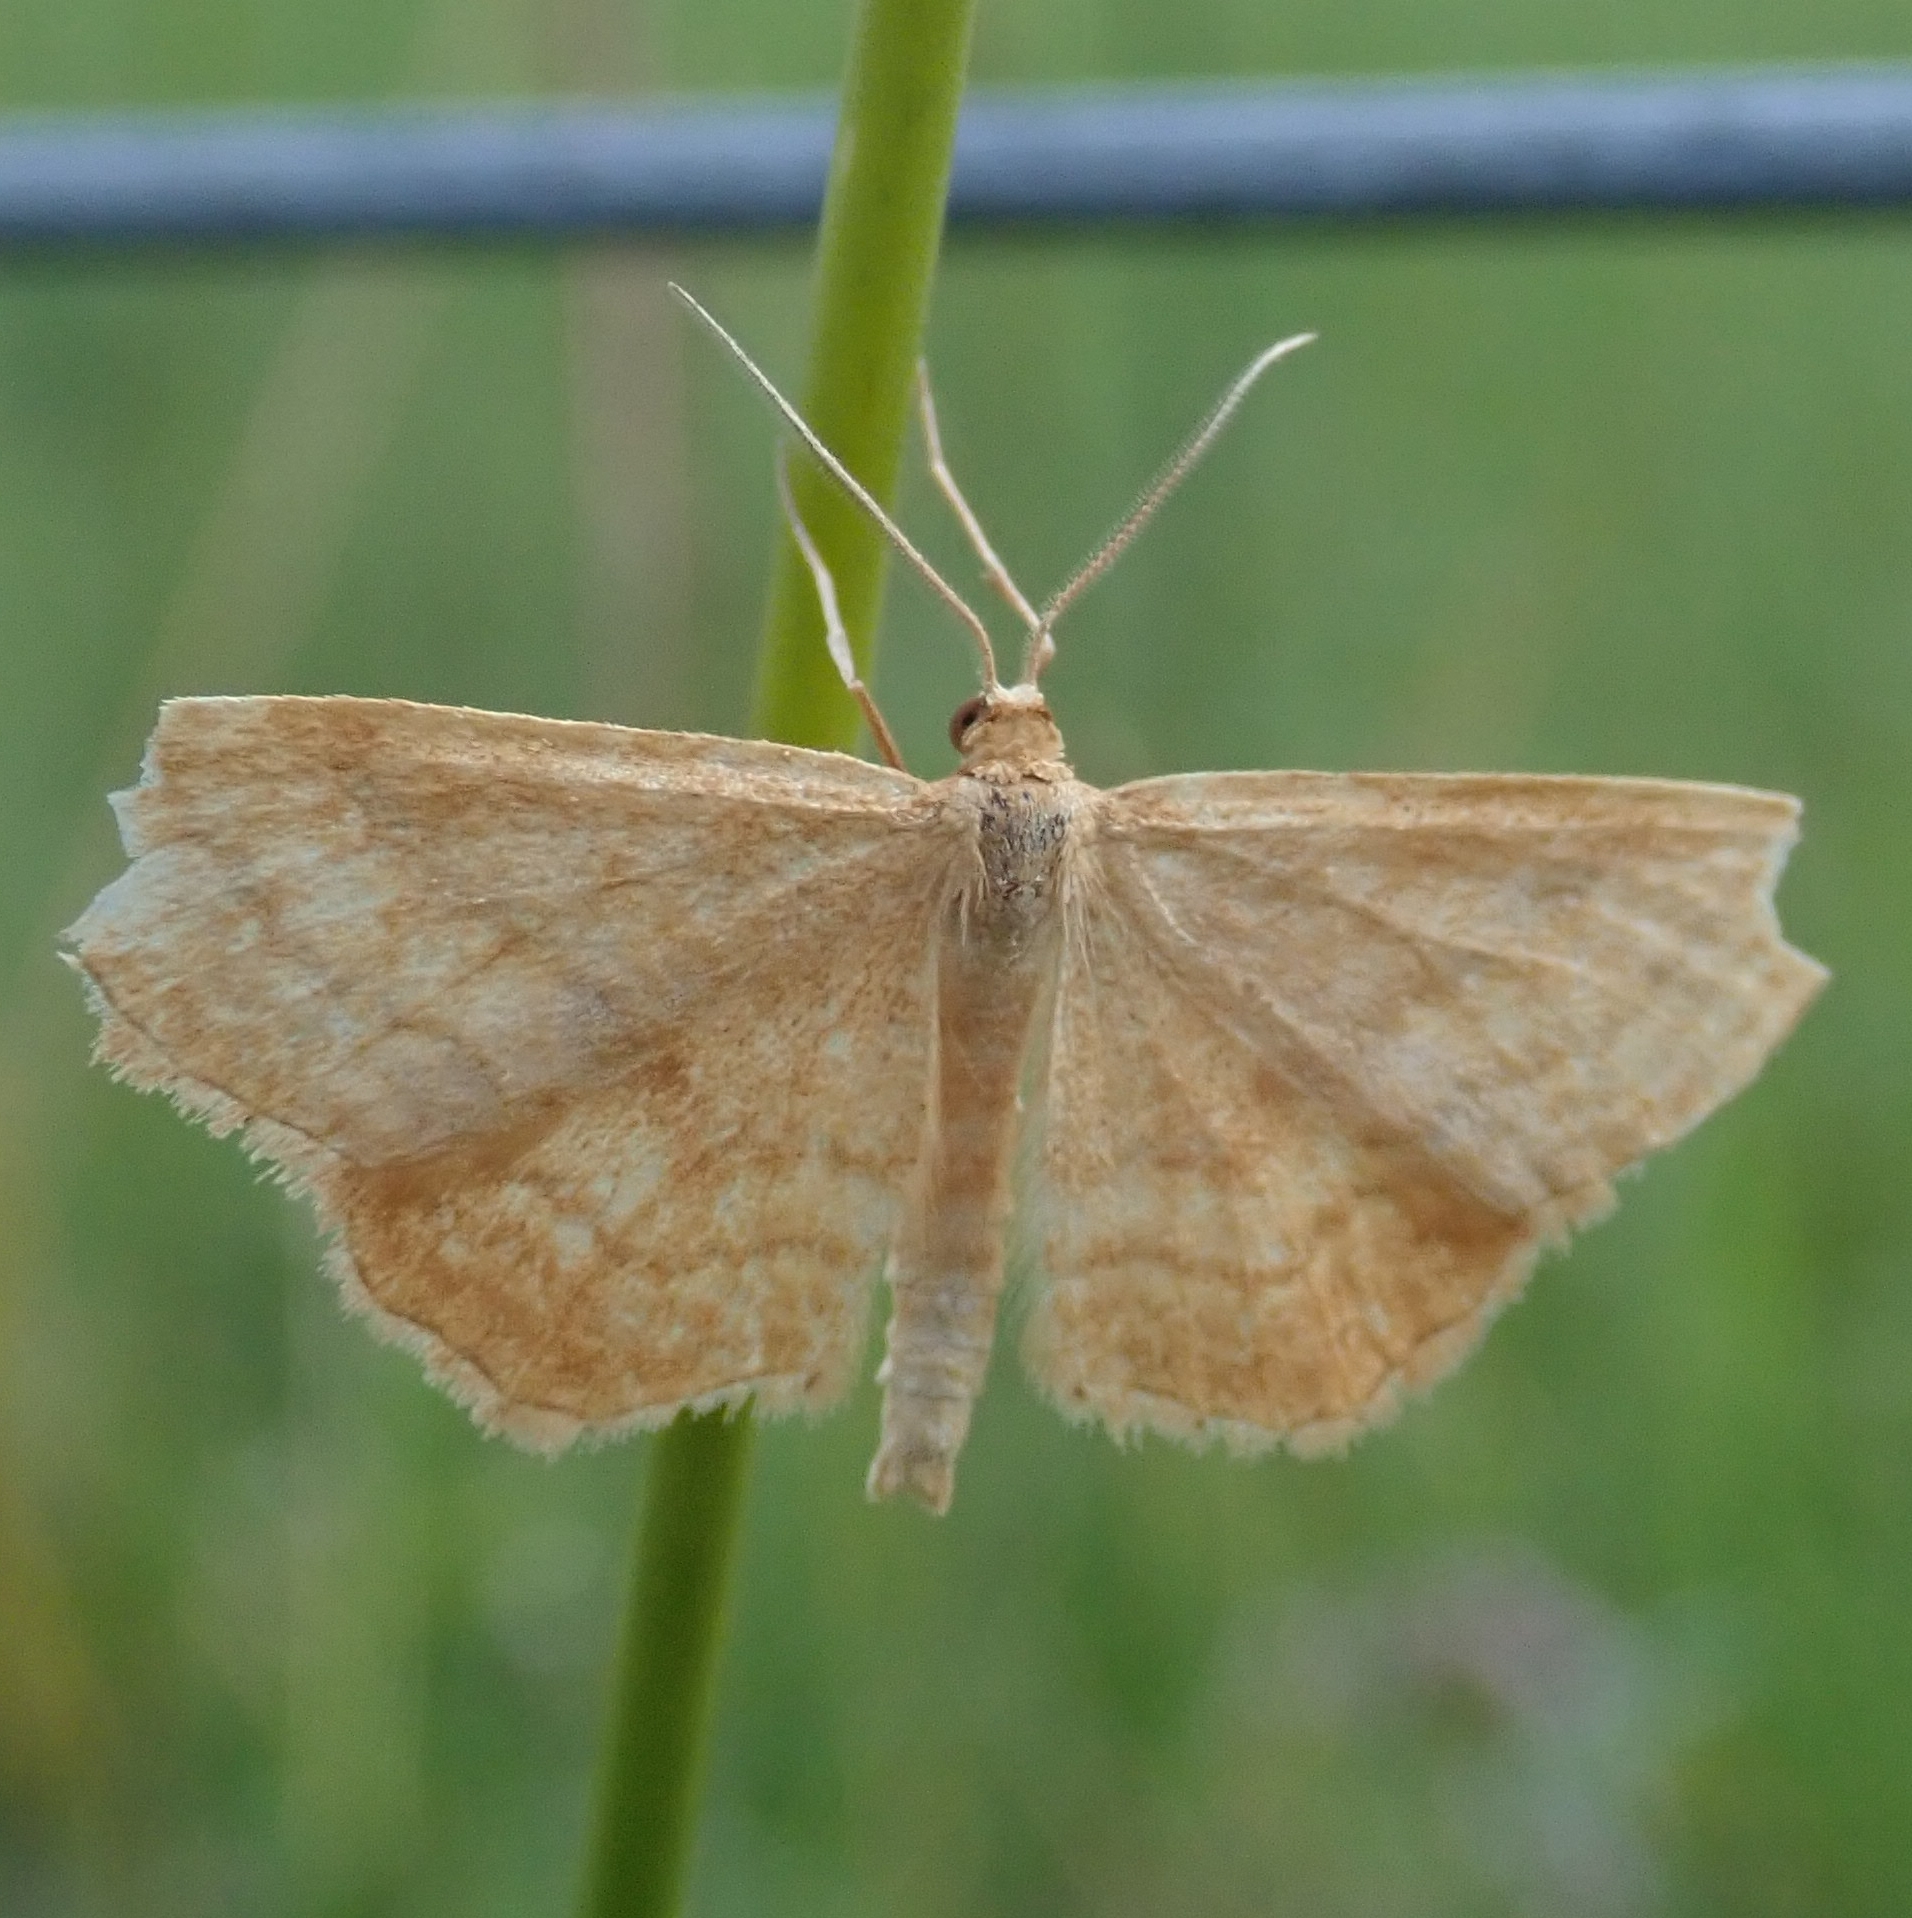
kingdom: Animalia
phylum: Arthropoda
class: Insecta
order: Lepidoptera
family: Geometridae
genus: Idaea
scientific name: Idaea ochrata
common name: Bright wave
